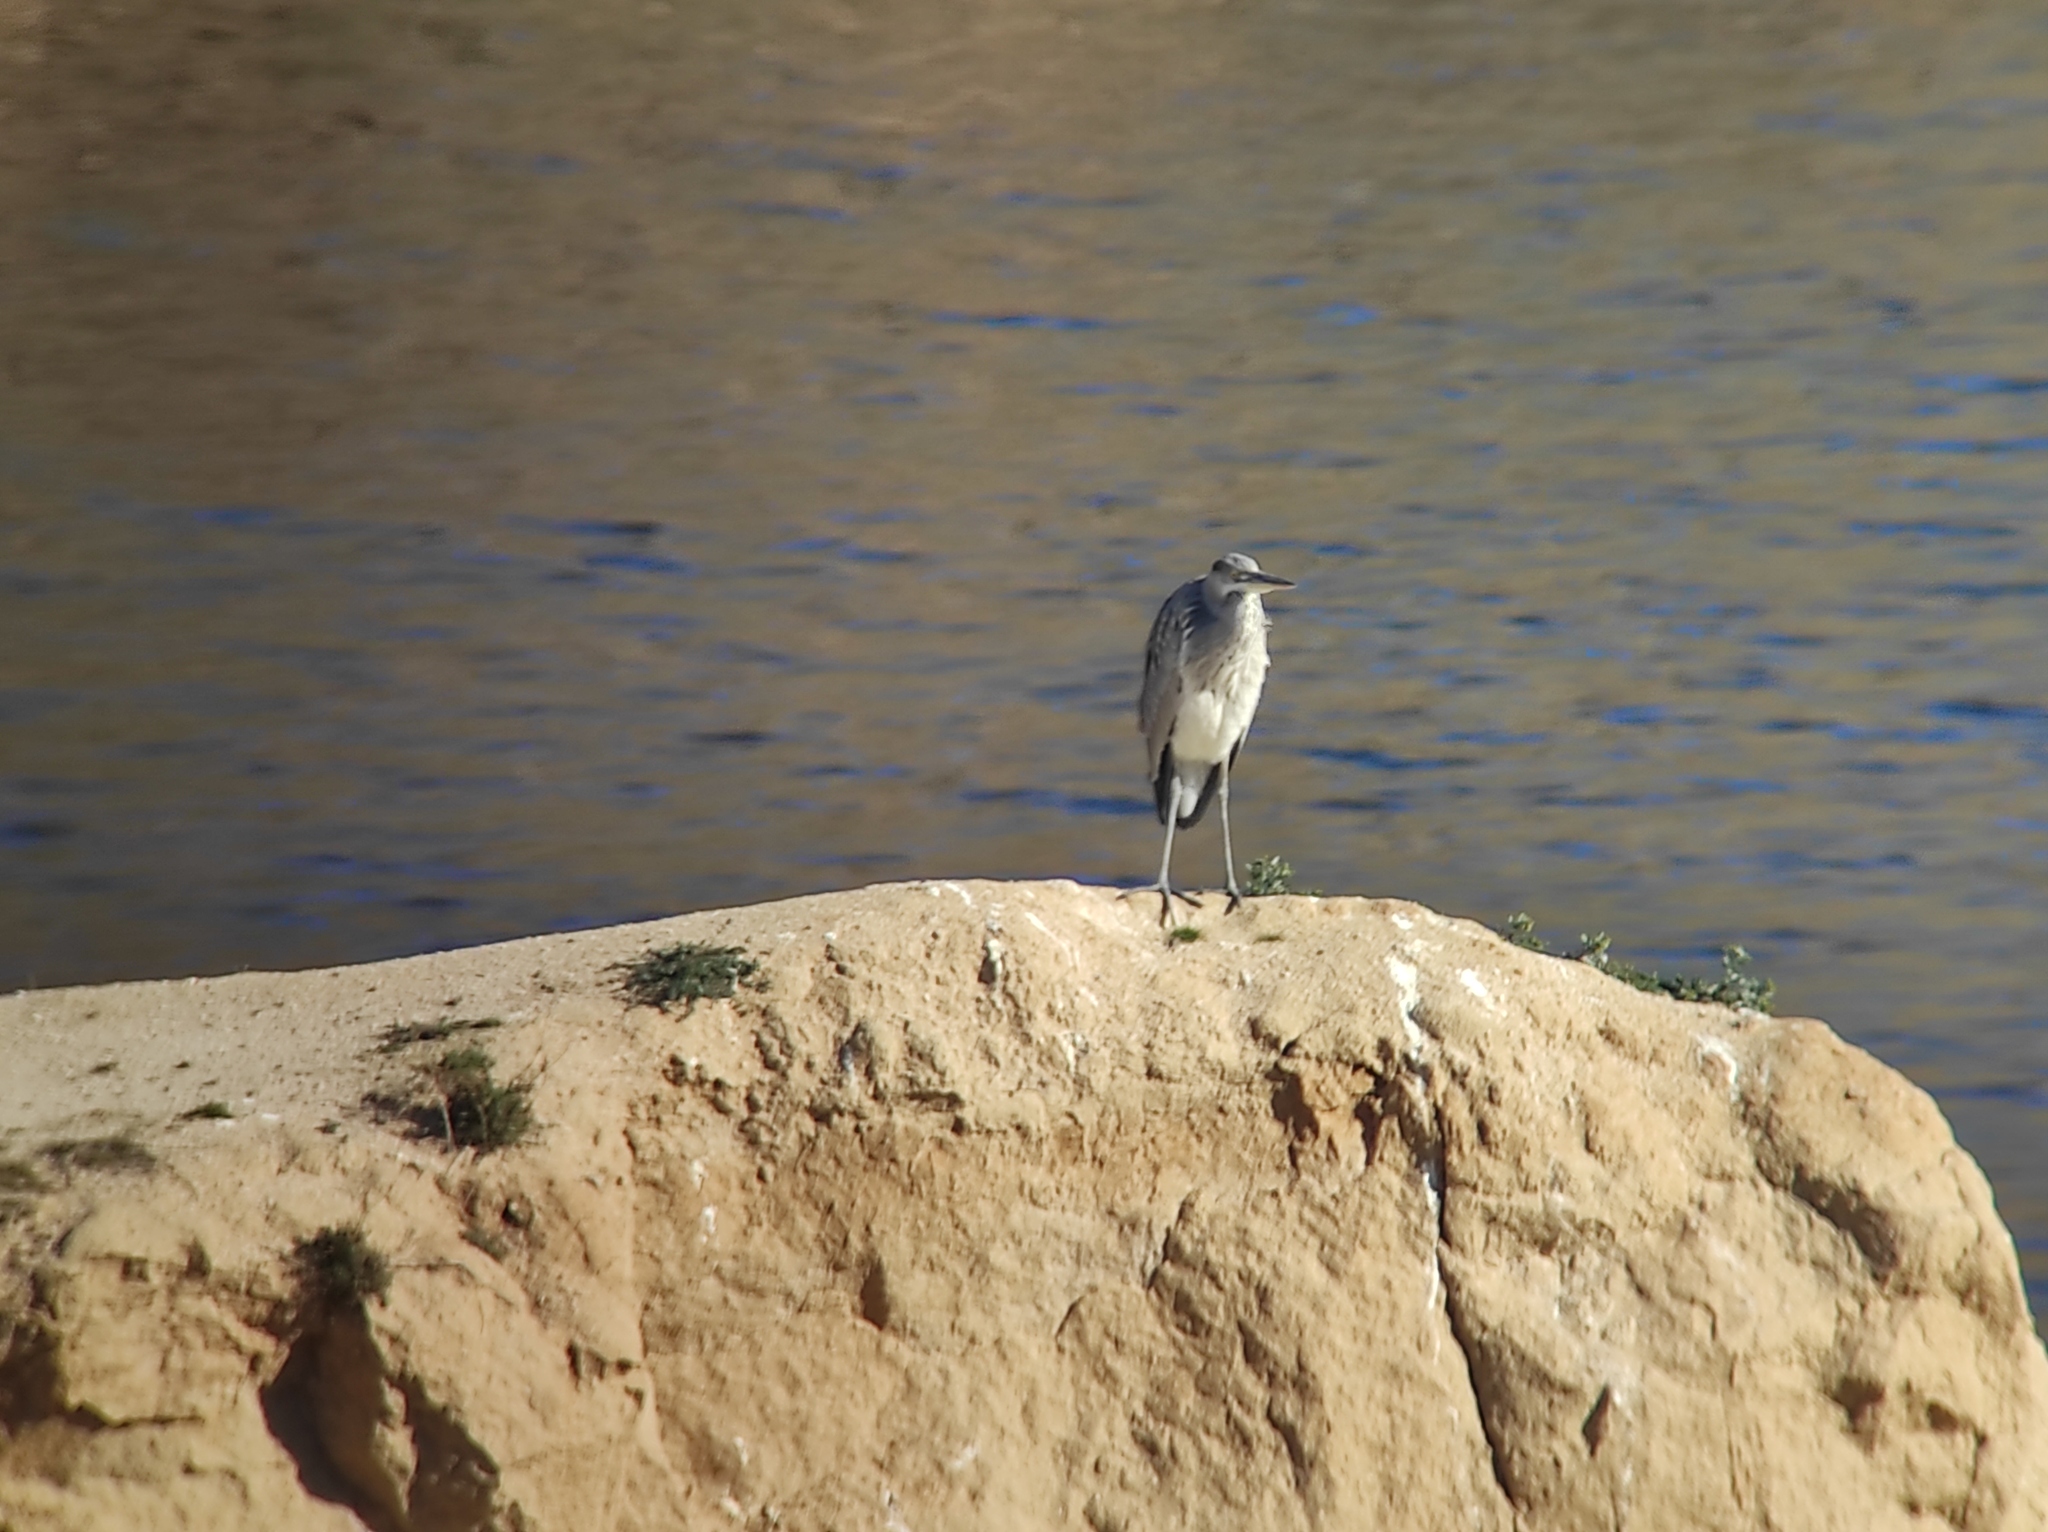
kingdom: Animalia
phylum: Chordata
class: Aves
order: Pelecaniformes
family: Ardeidae
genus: Ardea
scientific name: Ardea cinerea
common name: Grey heron
